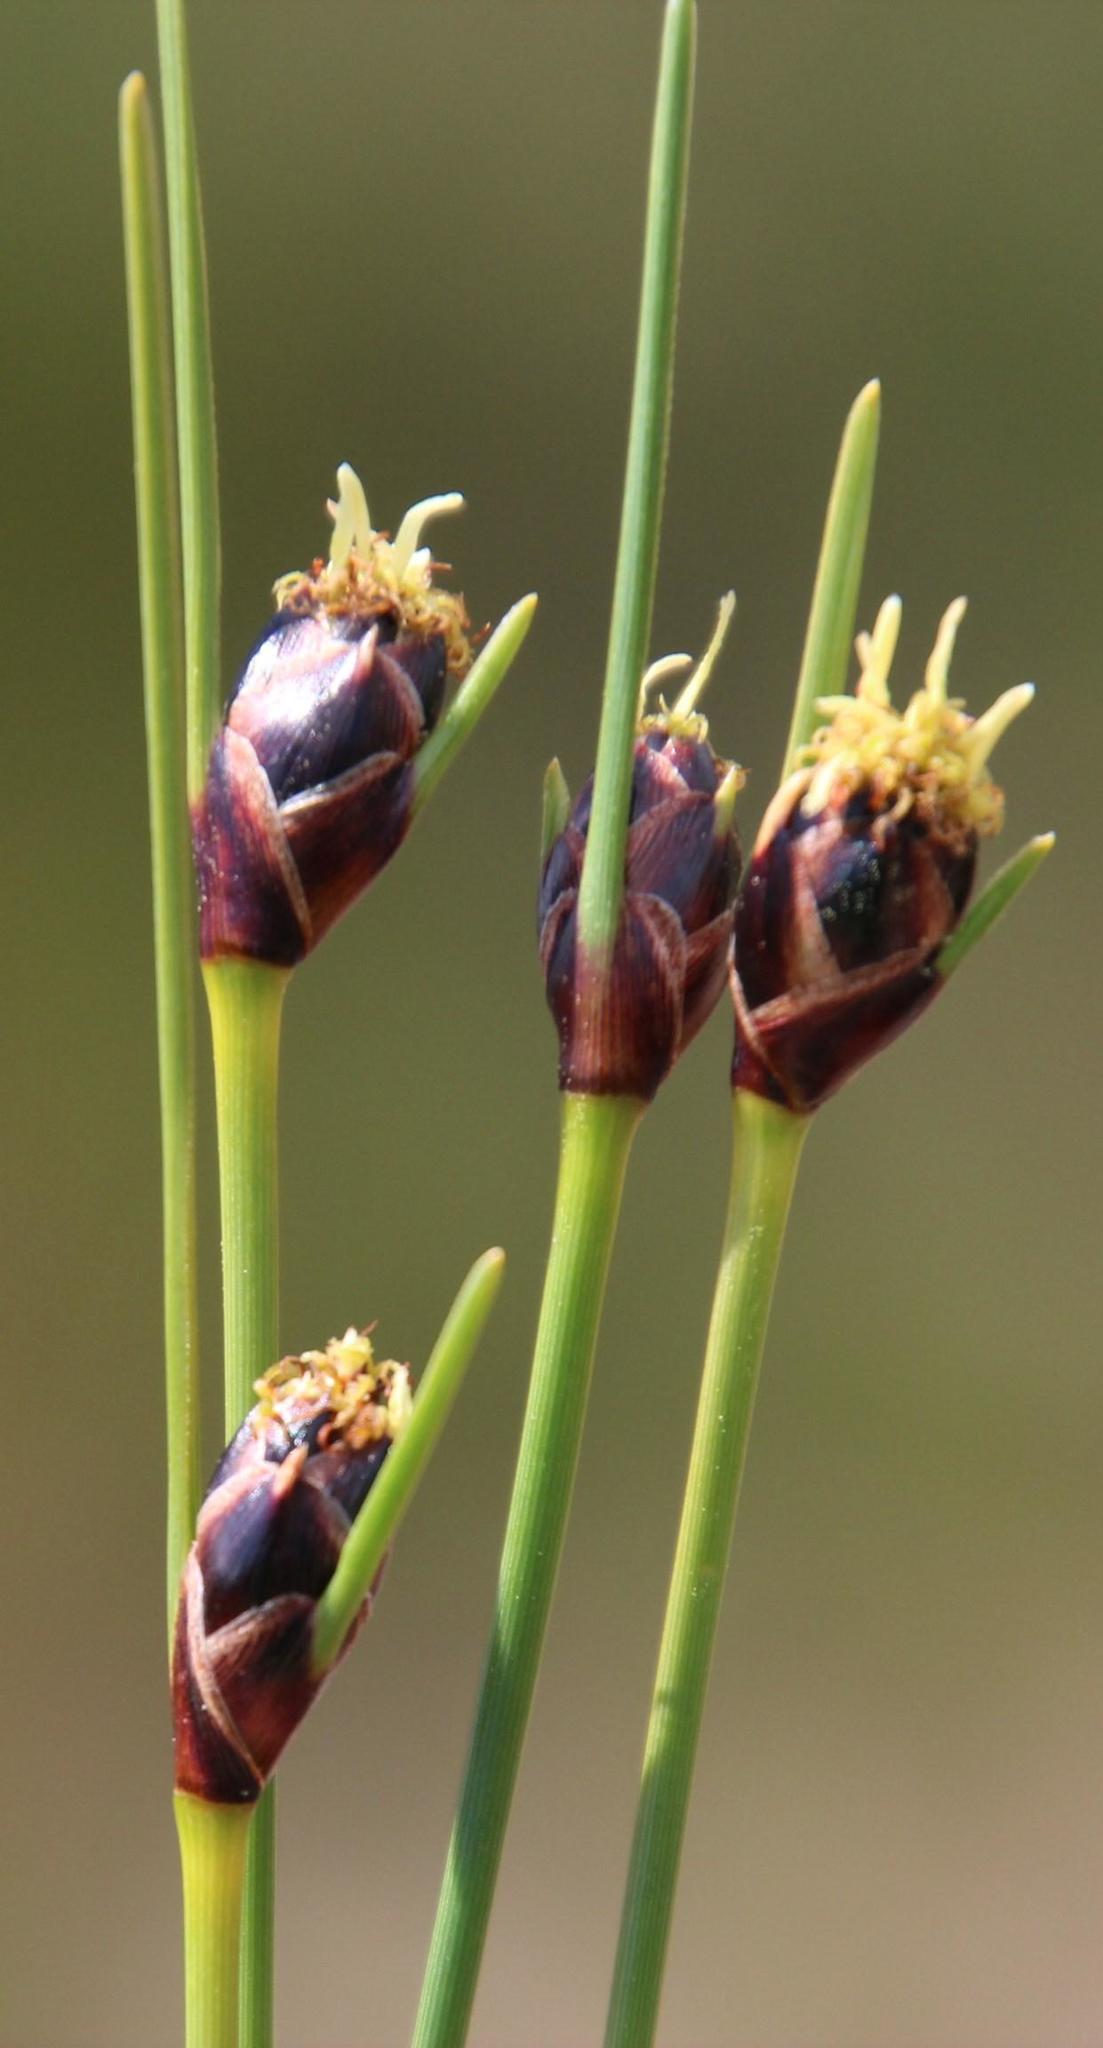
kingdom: Plantae
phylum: Tracheophyta
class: Liliopsida
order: Poales
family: Cyperaceae
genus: Ficinia
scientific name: Ficinia levynsiae
